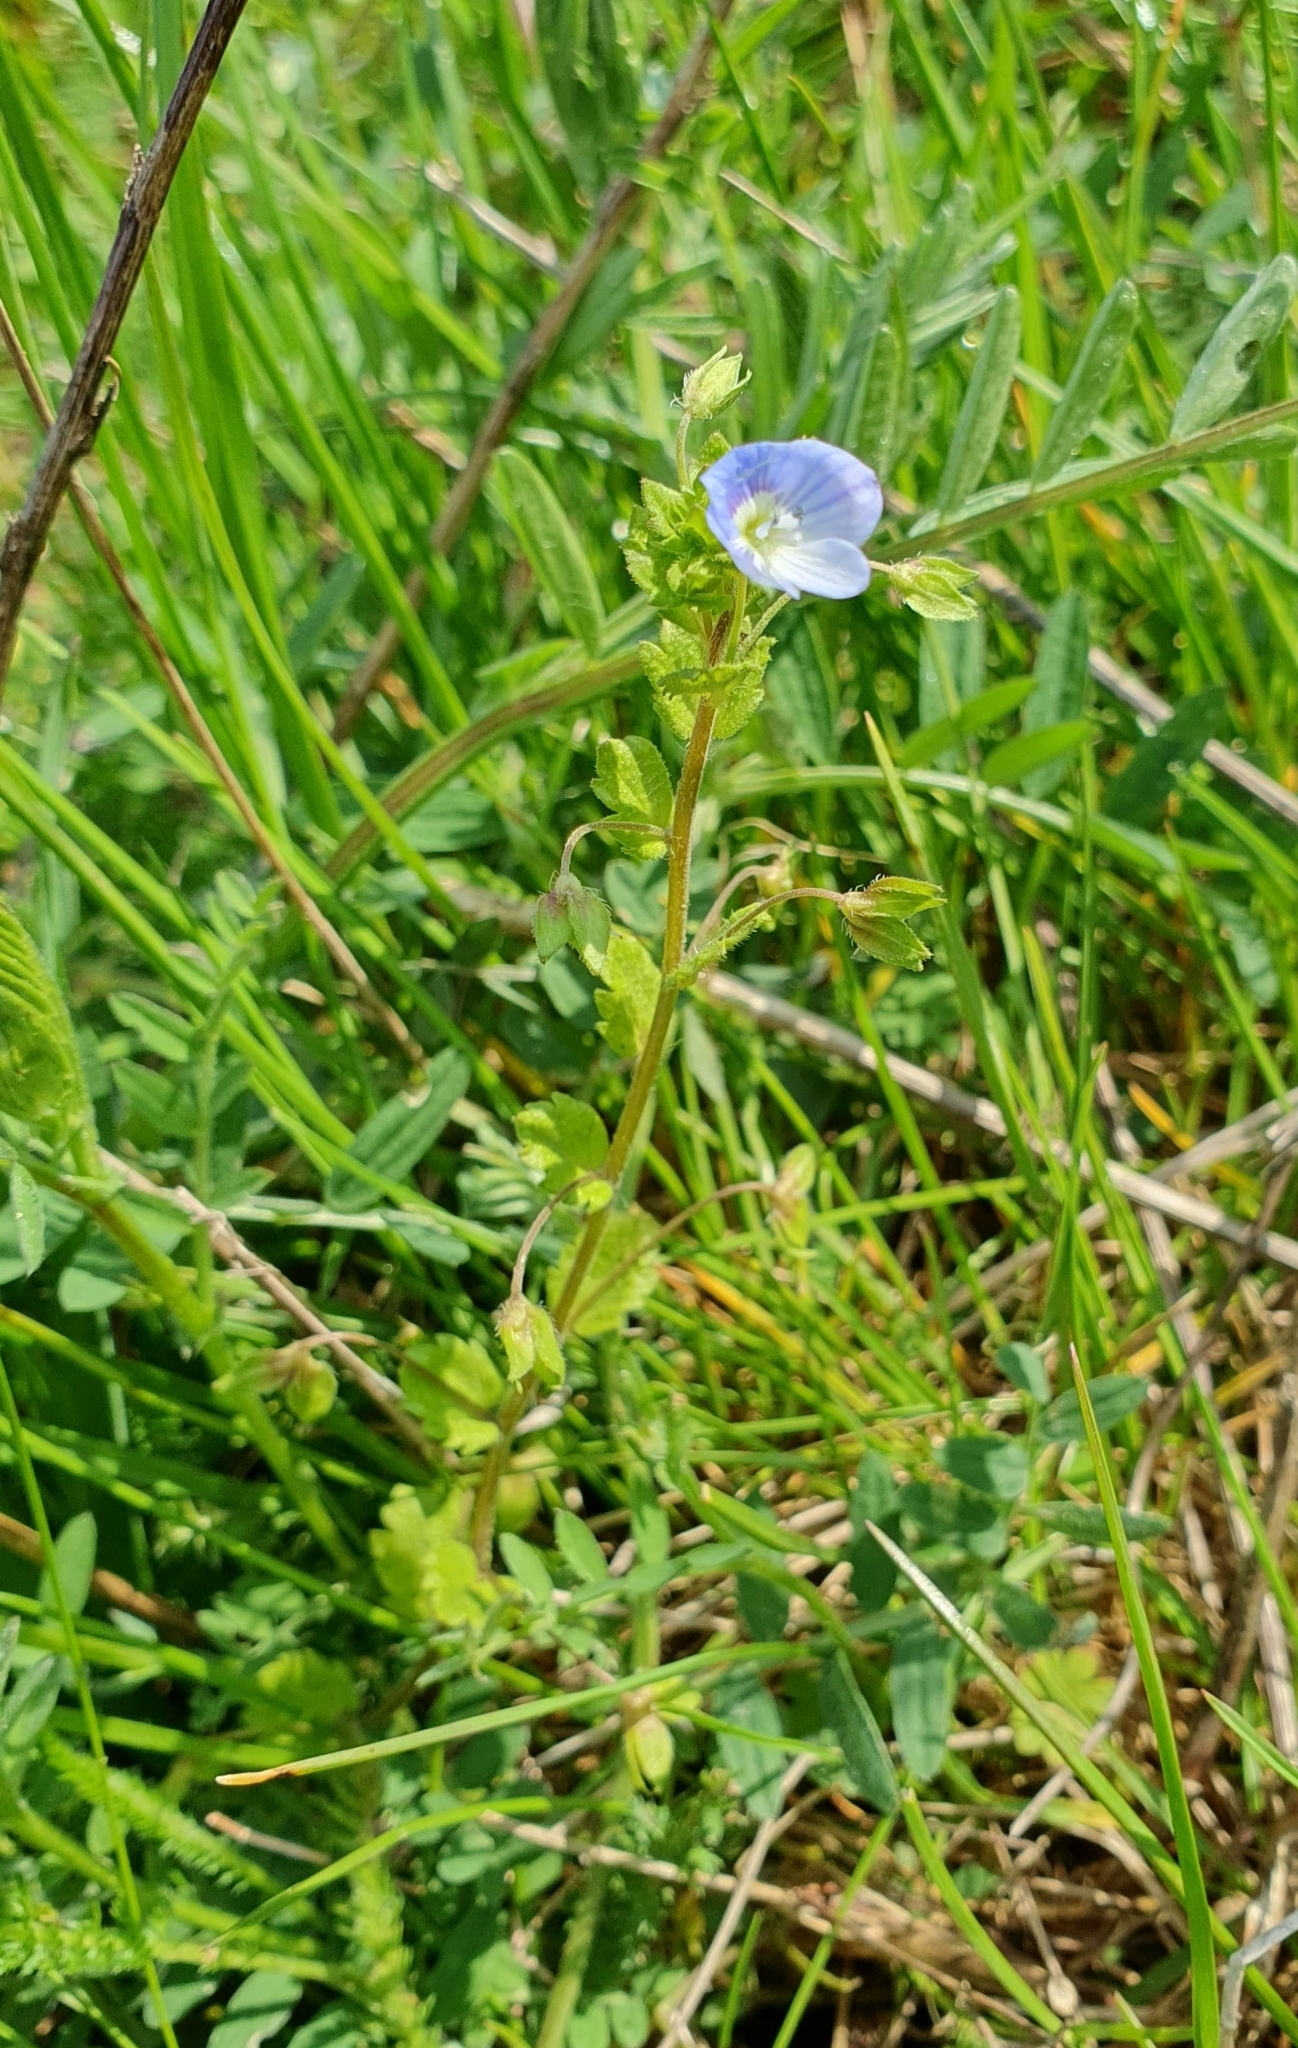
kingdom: Plantae
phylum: Tracheophyta
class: Magnoliopsida
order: Lamiales
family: Plantaginaceae
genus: Veronica
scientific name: Veronica persica
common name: Common field-speedwell
